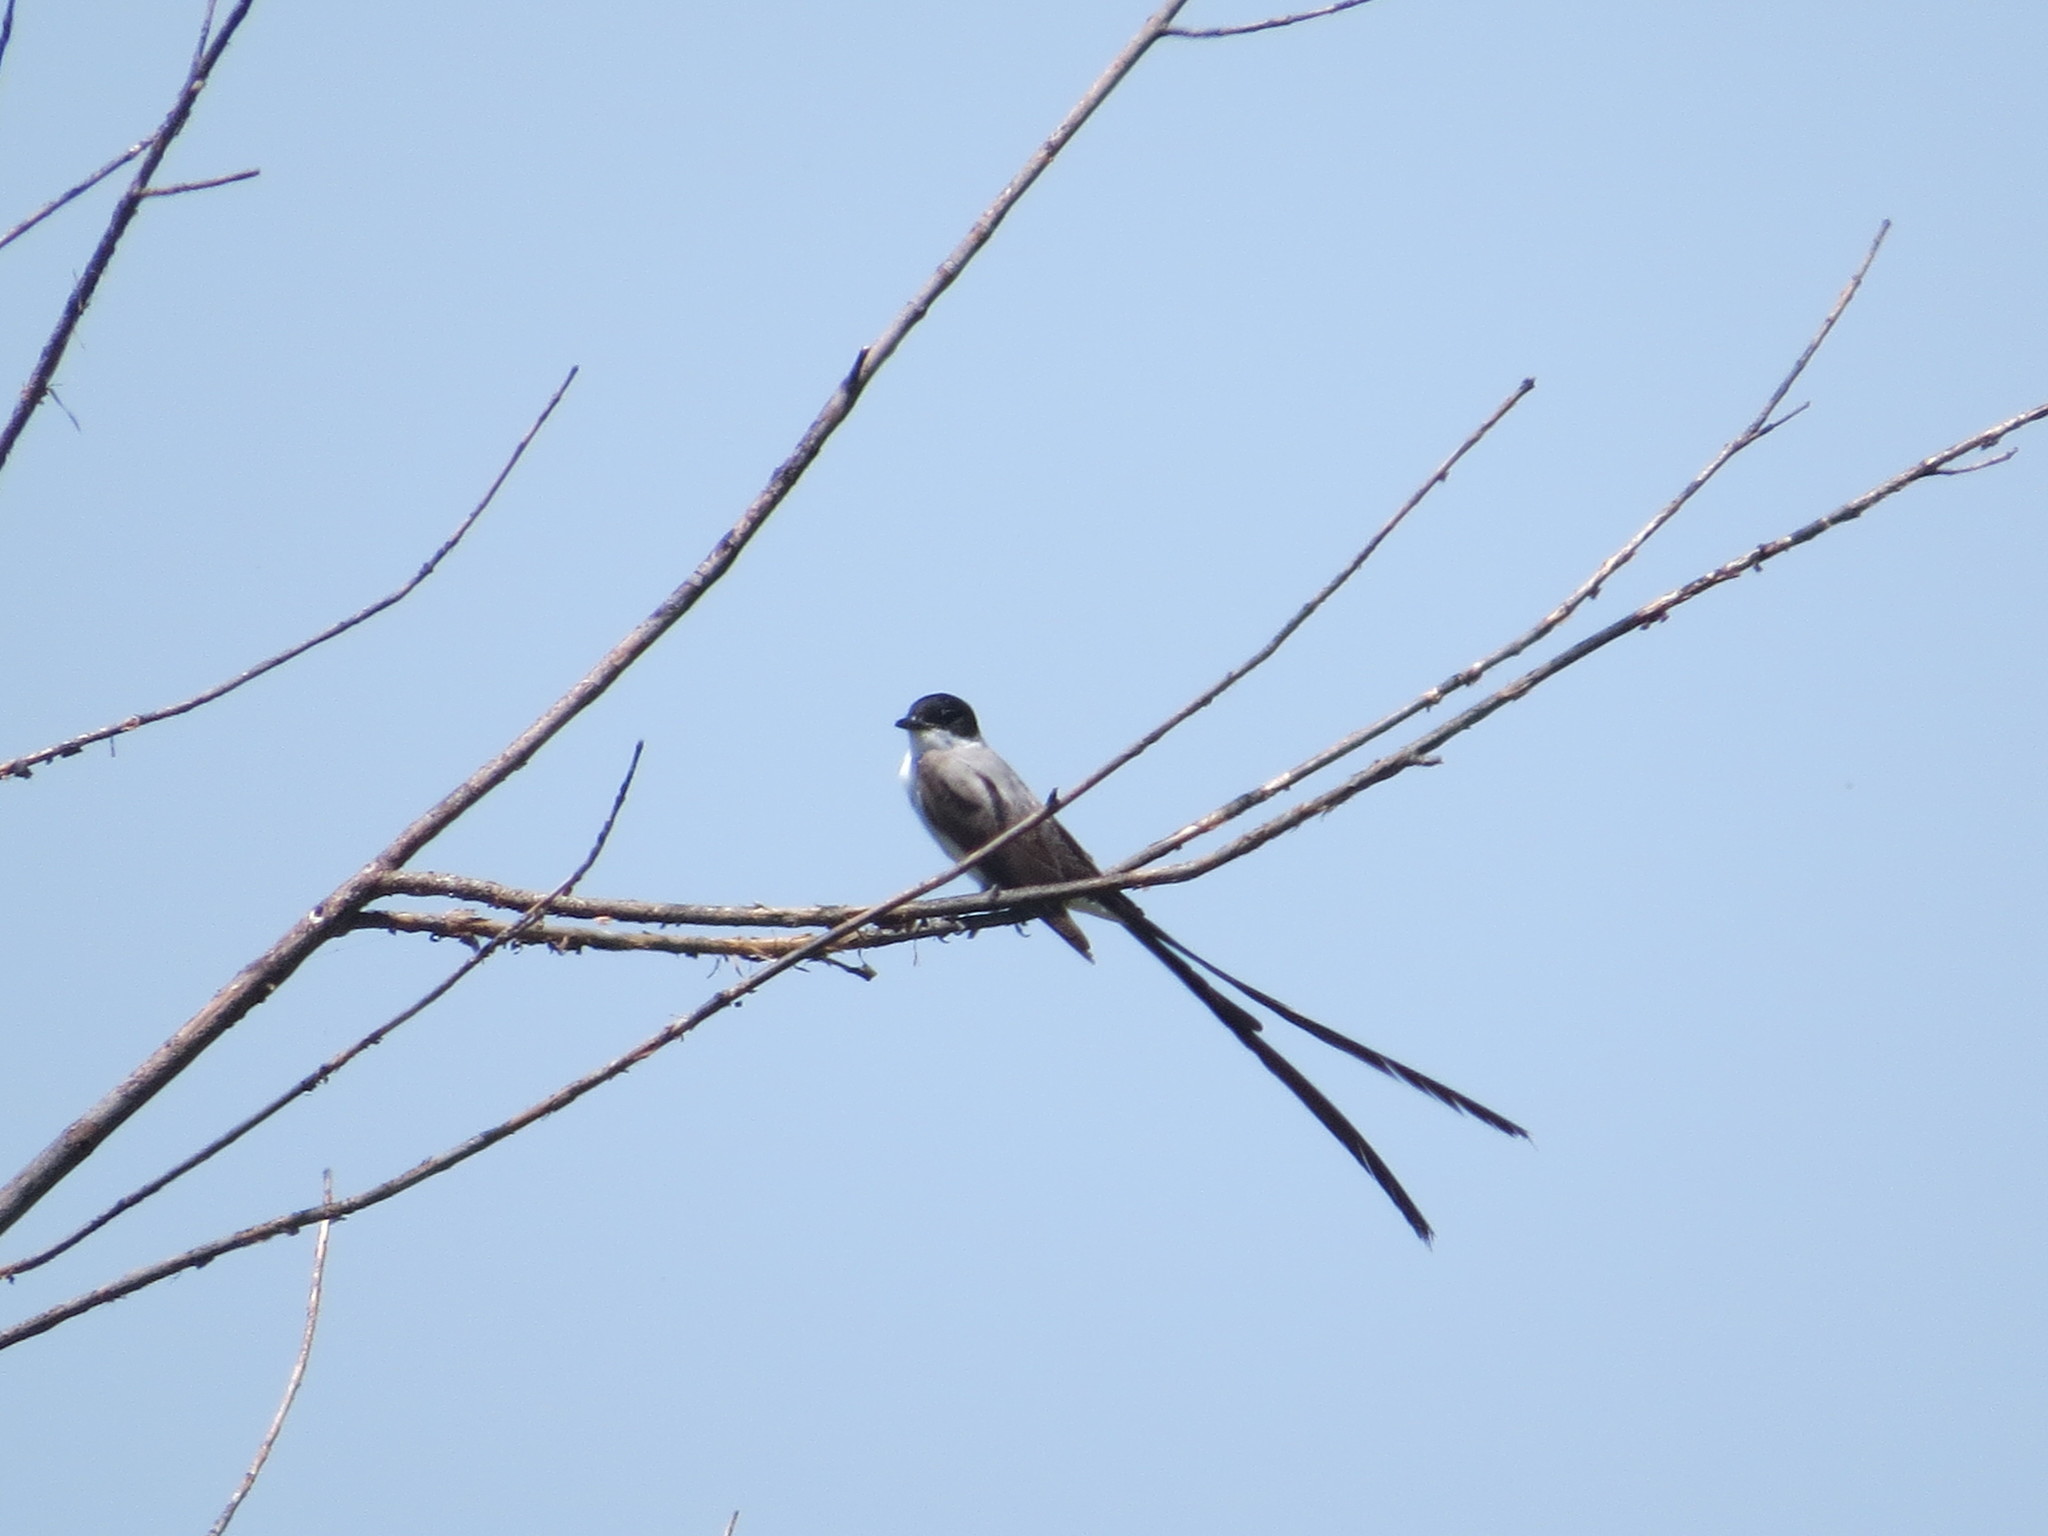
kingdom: Animalia
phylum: Chordata
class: Aves
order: Passeriformes
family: Tyrannidae
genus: Tyrannus
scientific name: Tyrannus savana
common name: Fork-tailed flycatcher
